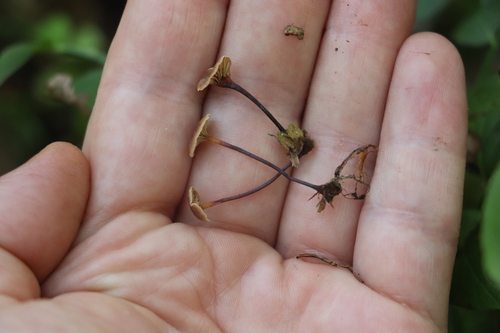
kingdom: Fungi
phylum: Basidiomycota
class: Agaricomycetes
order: Agaricales
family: Mycenaceae
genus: Xeromphalina
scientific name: Xeromphalina cornui
